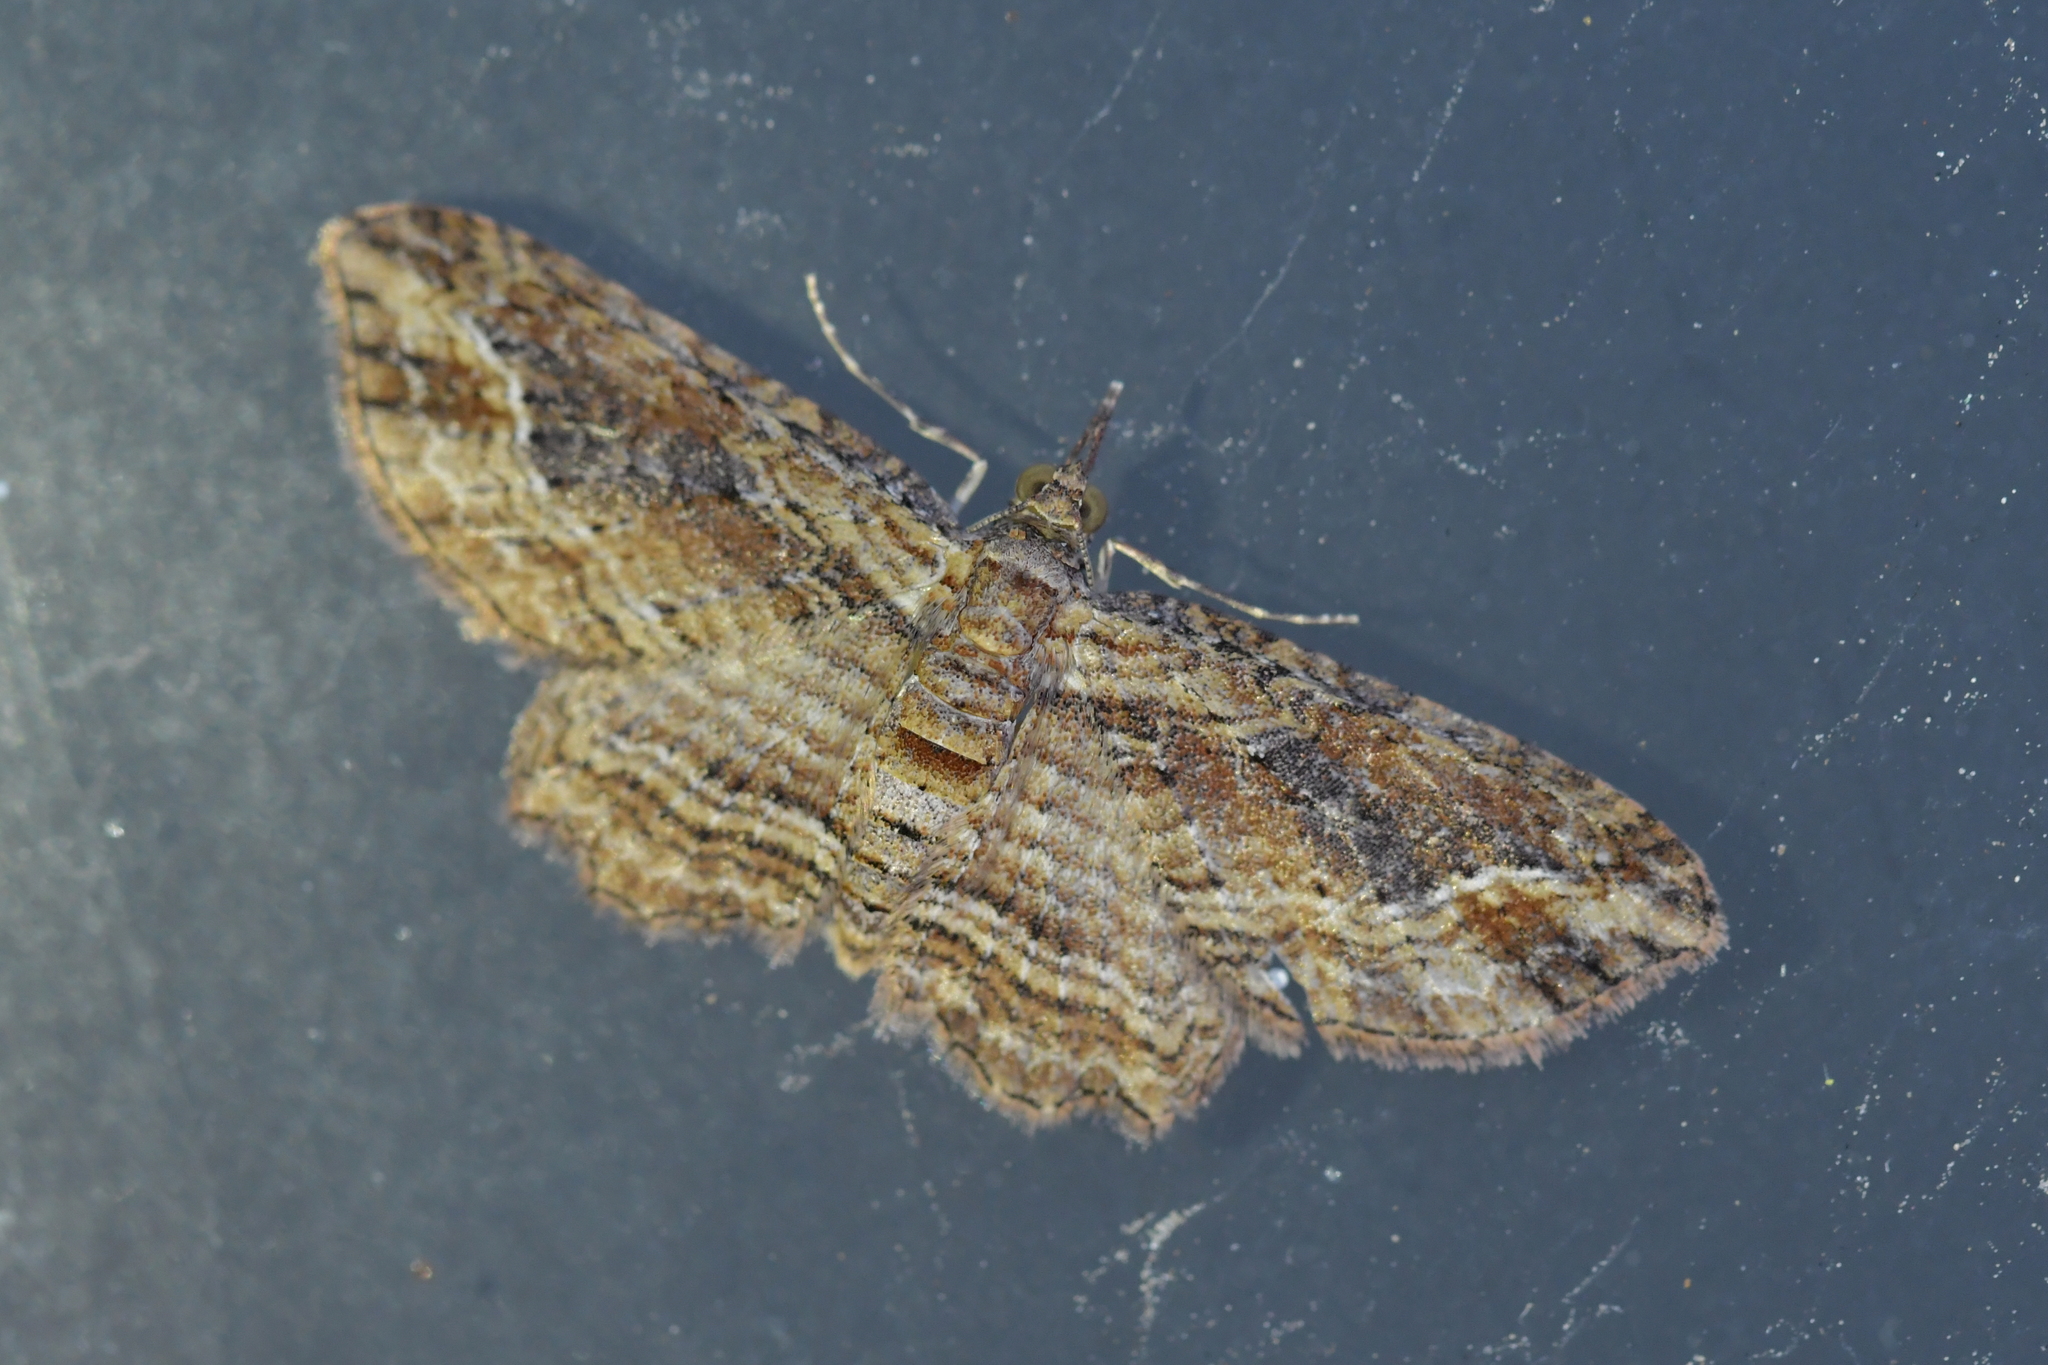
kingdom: Animalia
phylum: Arthropoda
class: Insecta
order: Lepidoptera
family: Geometridae
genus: Chloroclystis
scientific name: Chloroclystis filata
